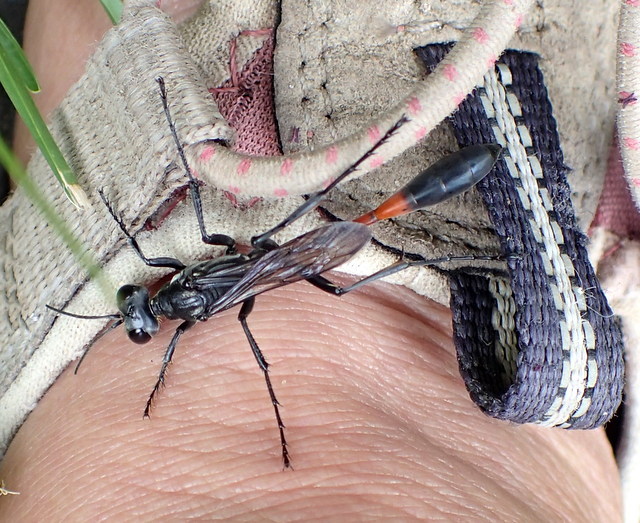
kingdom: Animalia
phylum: Arthropoda
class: Insecta
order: Hymenoptera
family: Sphecidae
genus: Ammophila
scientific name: Ammophila procera
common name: Common thread-waisted wasp
